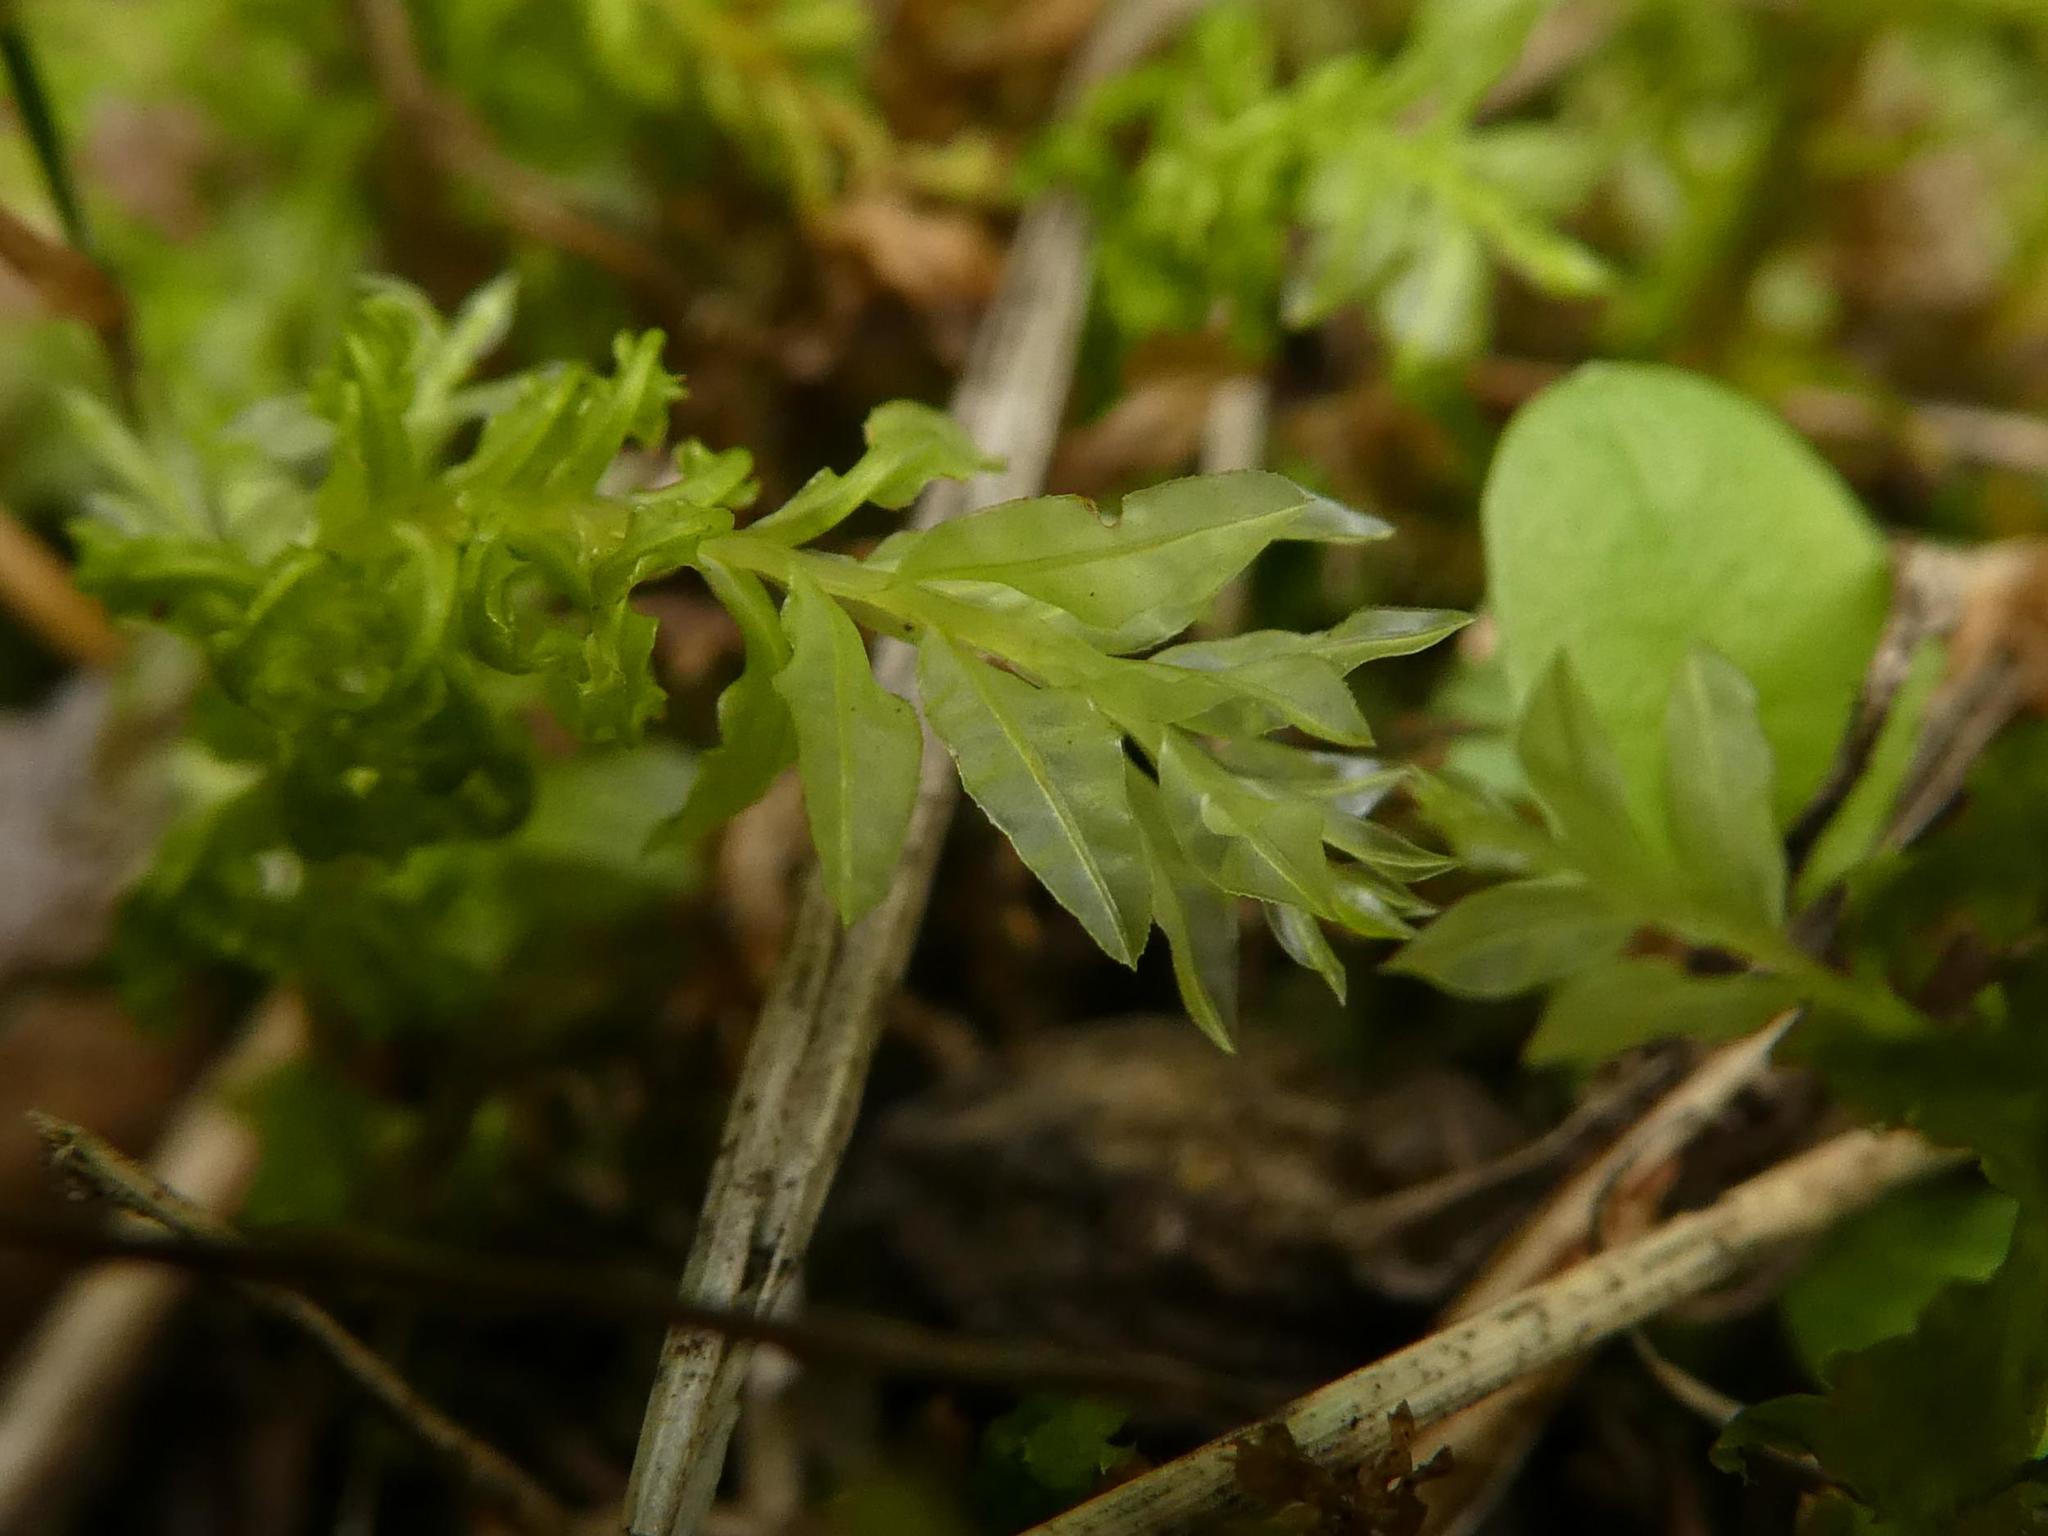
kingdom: Plantae
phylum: Bryophyta
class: Bryopsida
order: Bryales
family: Mniaceae
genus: Plagiomnium
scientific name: Plagiomnium undulatum
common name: Hart's-tongue thyme-moss
